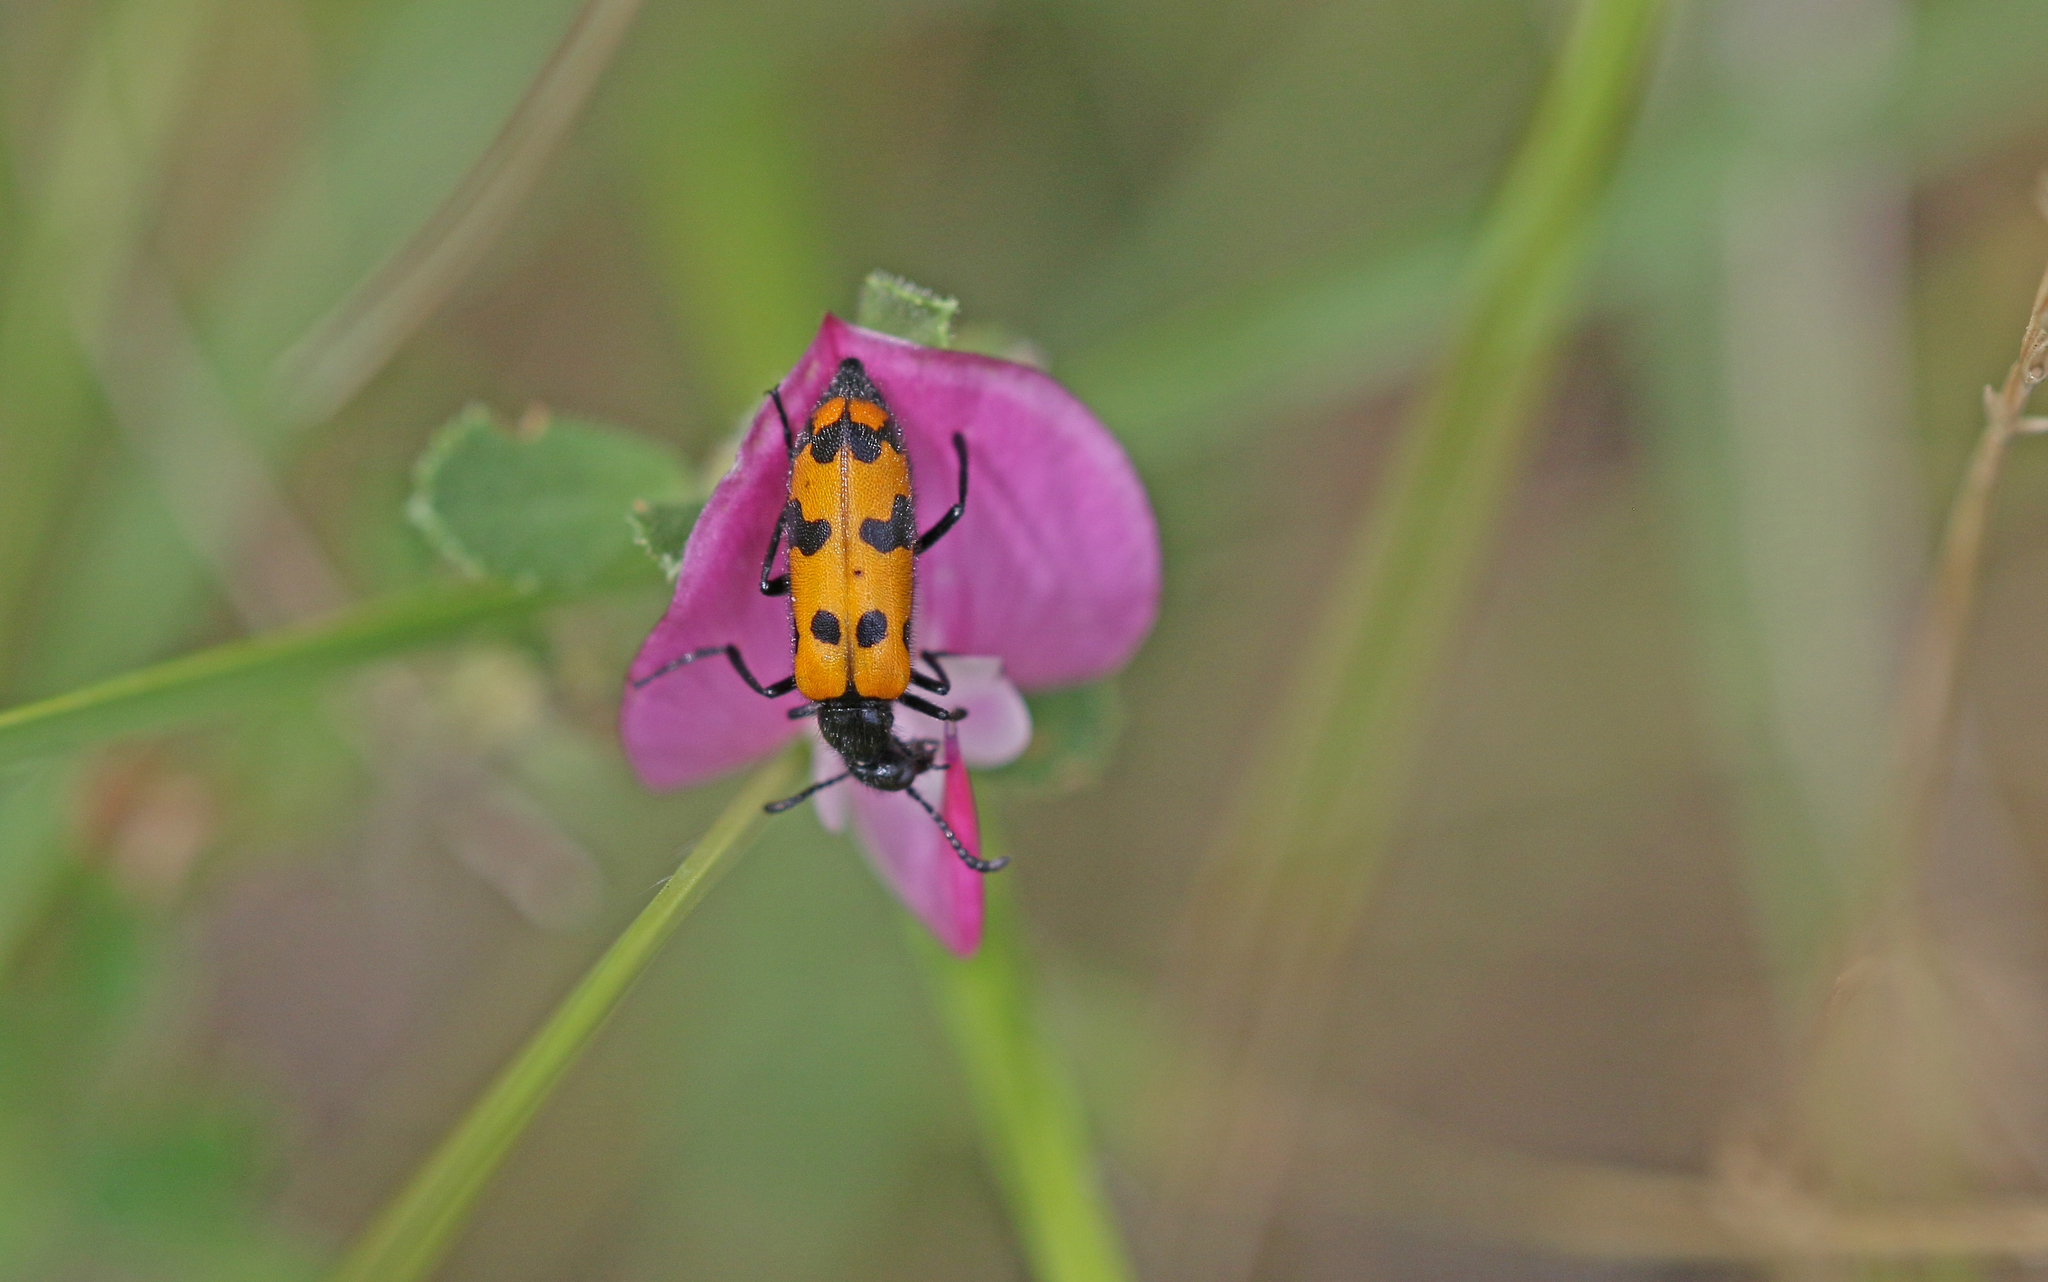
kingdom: Animalia
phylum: Arthropoda
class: Insecta
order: Coleoptera
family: Meloidae
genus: Mylabris
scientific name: Mylabris connata
